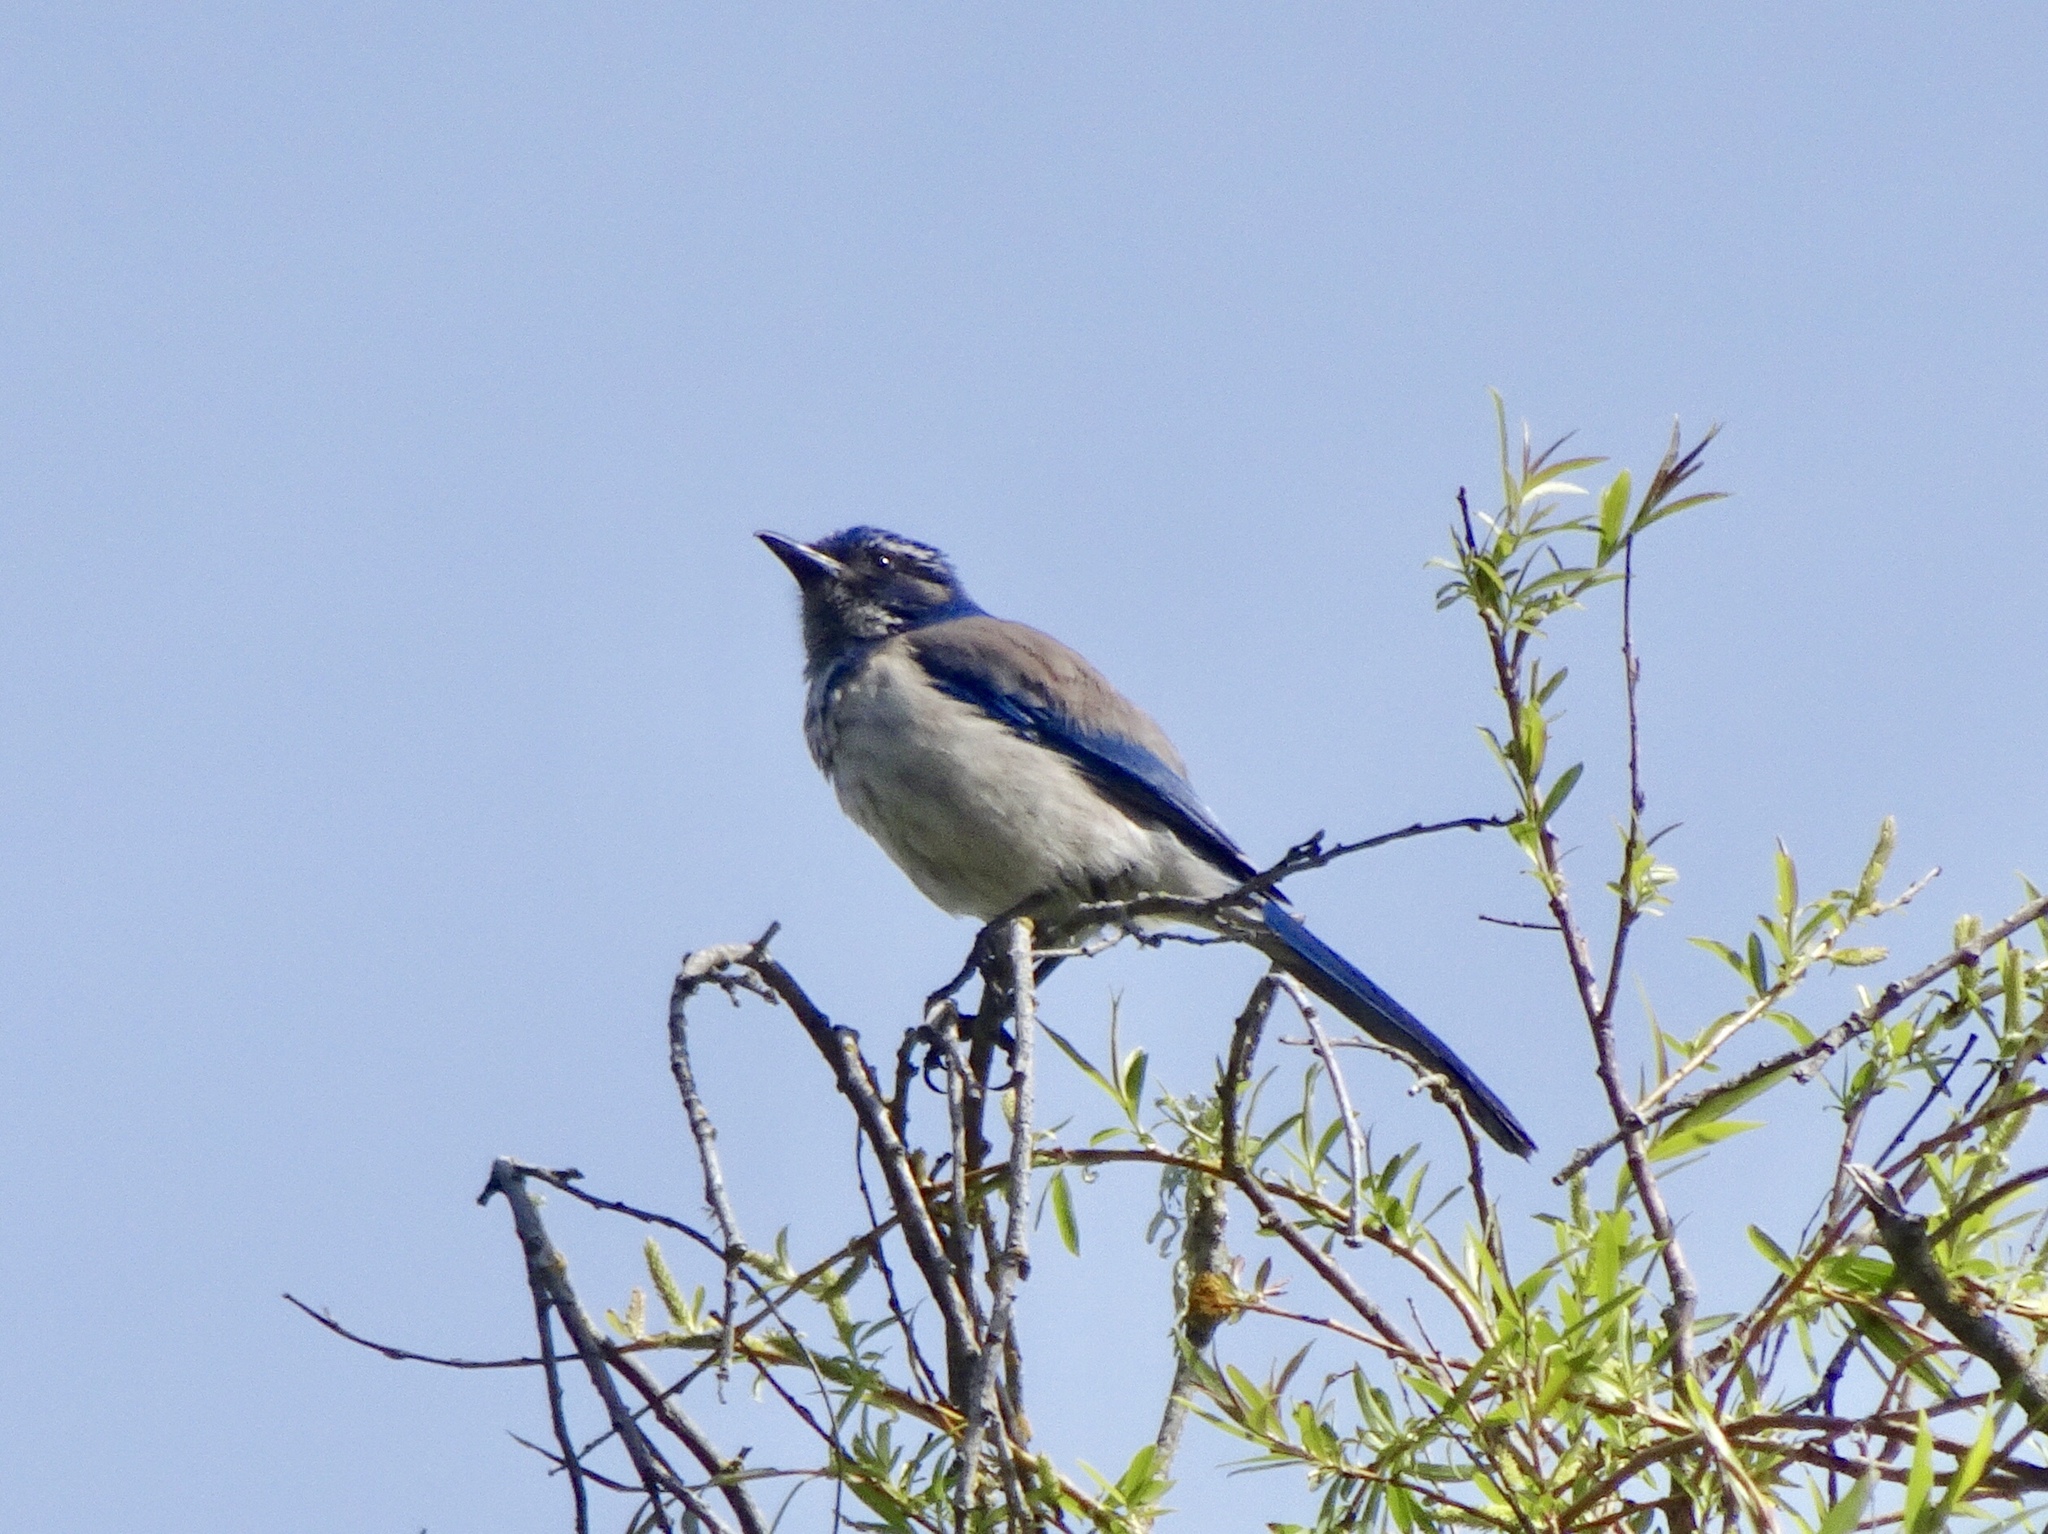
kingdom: Animalia
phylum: Chordata
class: Aves
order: Passeriformes
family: Corvidae
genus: Aphelocoma
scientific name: Aphelocoma californica
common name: California scrub-jay
